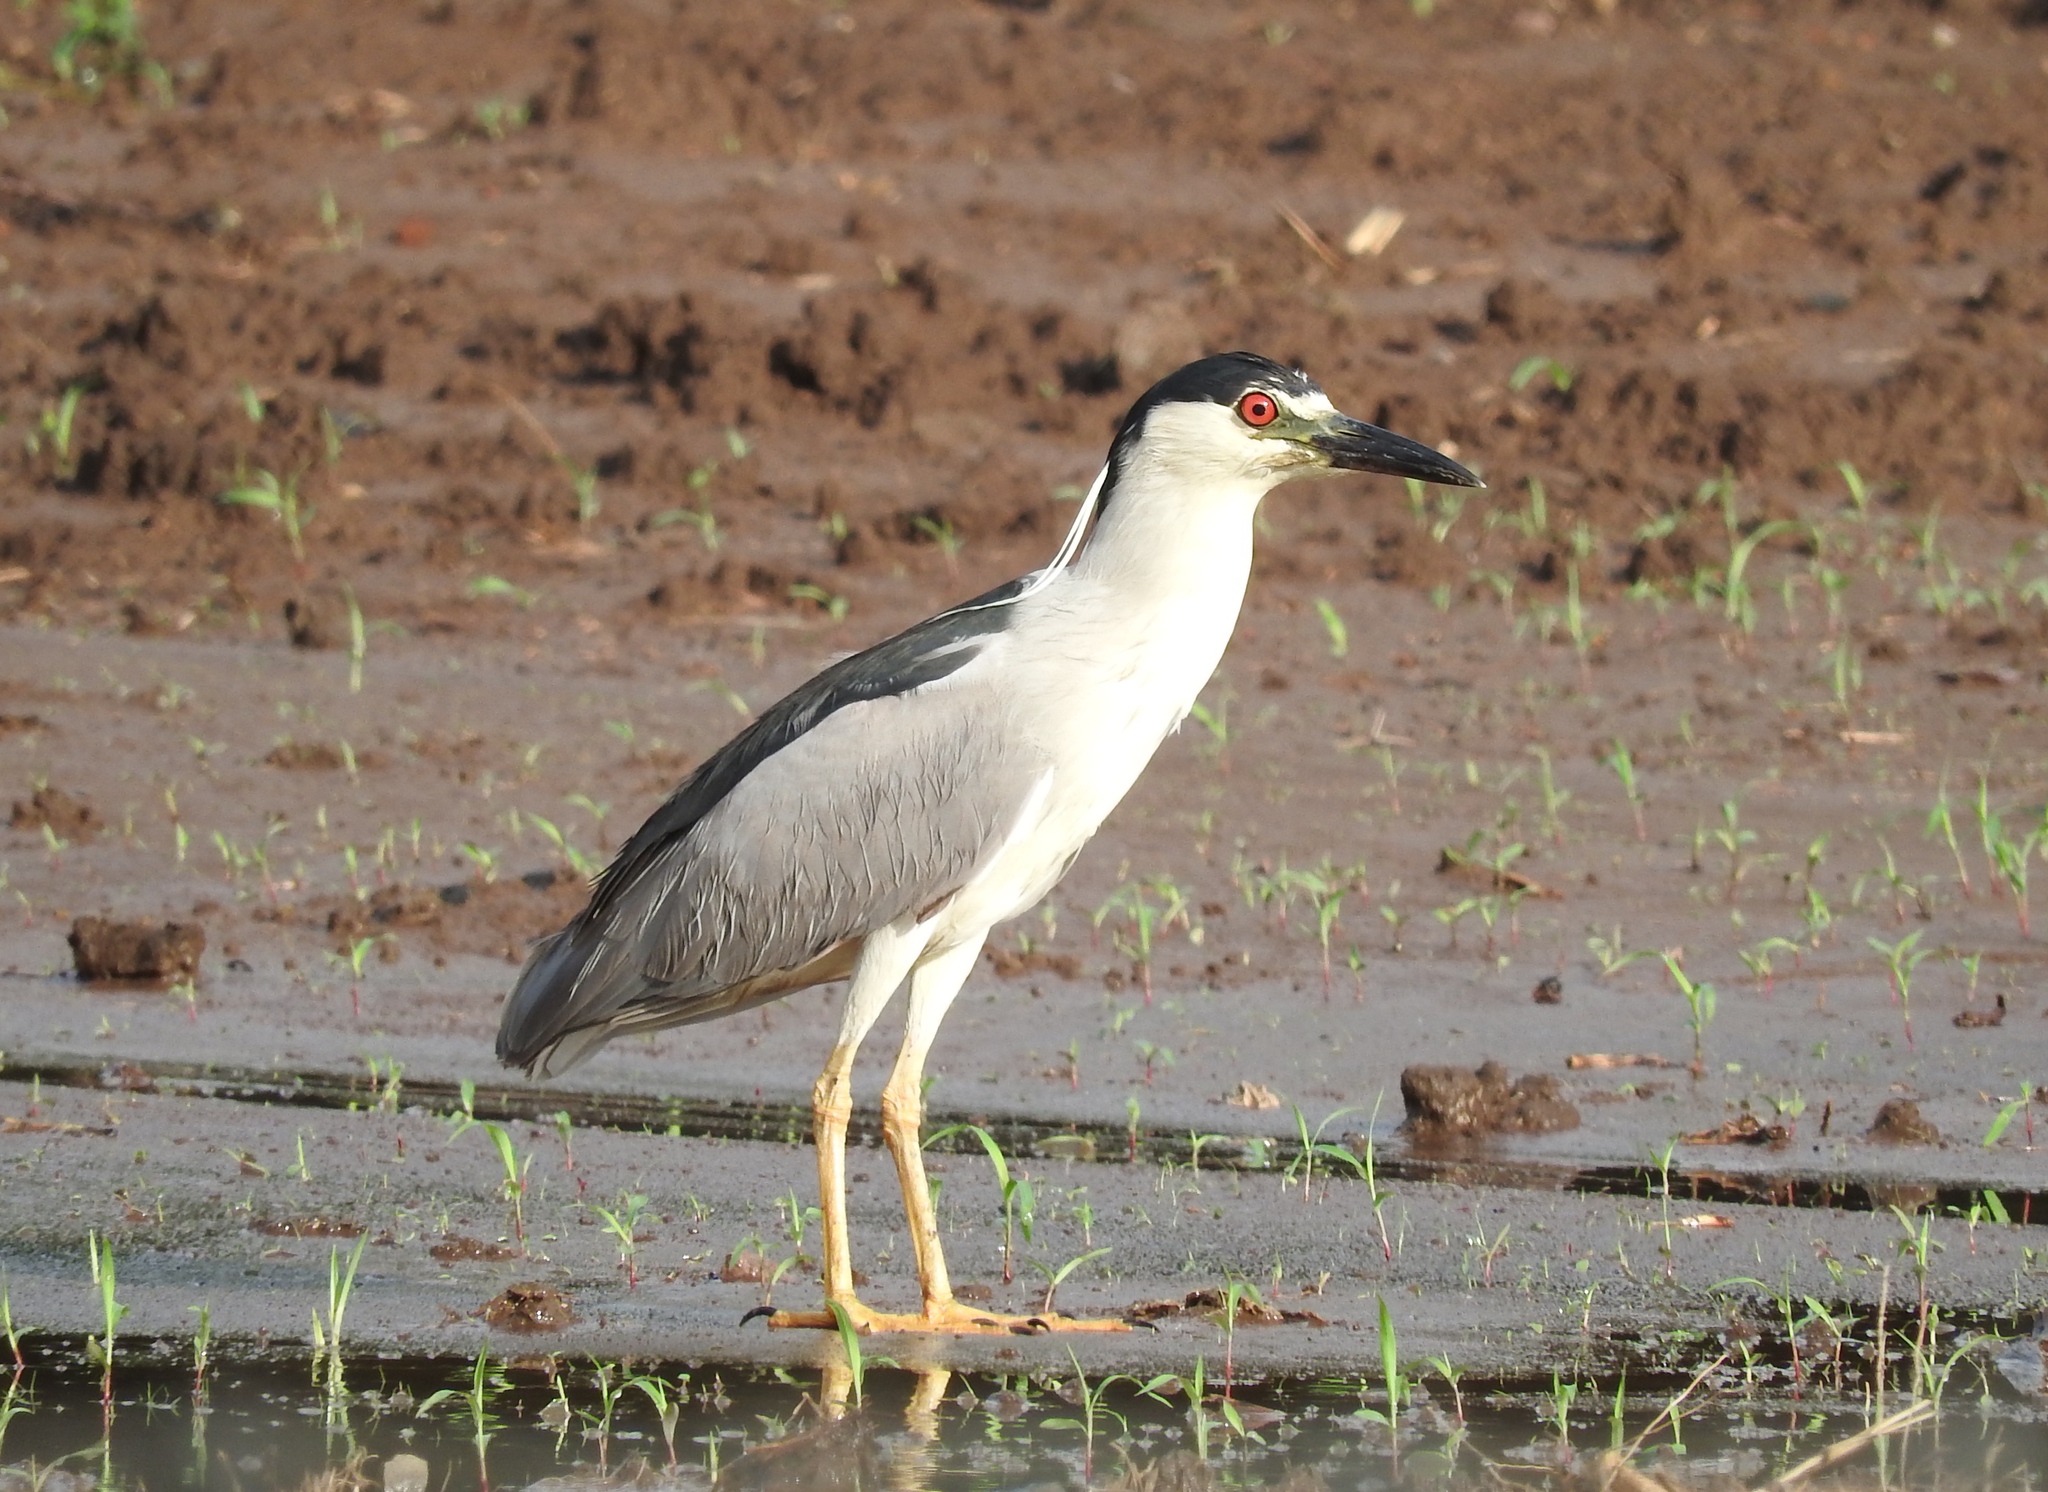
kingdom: Animalia
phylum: Chordata
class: Aves
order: Pelecaniformes
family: Ardeidae
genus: Nycticorax
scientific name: Nycticorax nycticorax
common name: Black-crowned night heron
